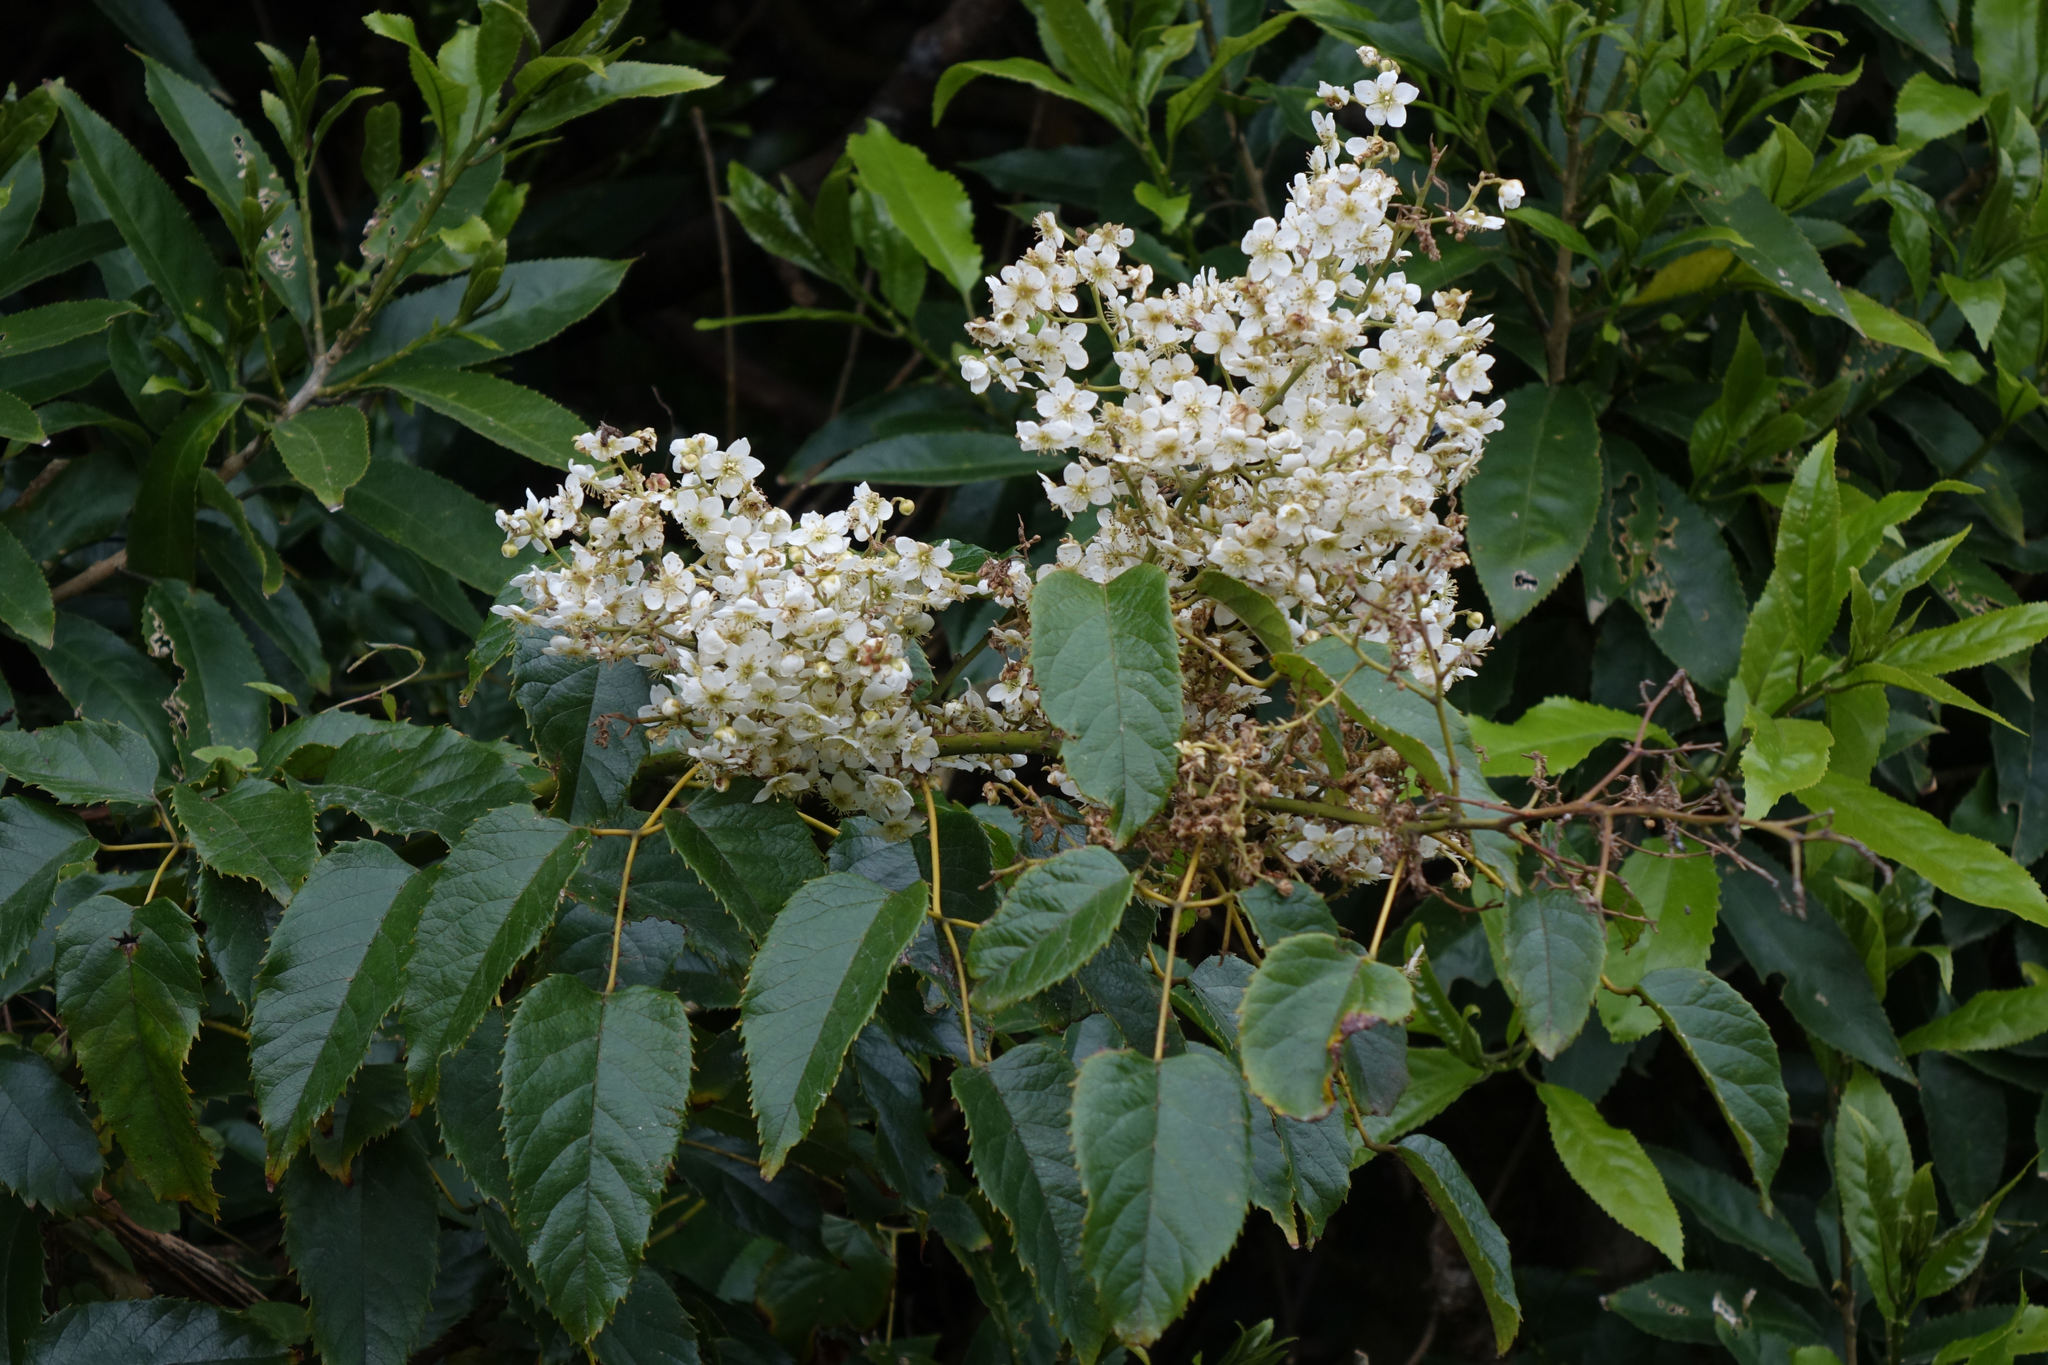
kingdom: Plantae
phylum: Tracheophyta
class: Magnoliopsida
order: Rosales
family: Rosaceae
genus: Rubus
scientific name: Rubus cissoides
